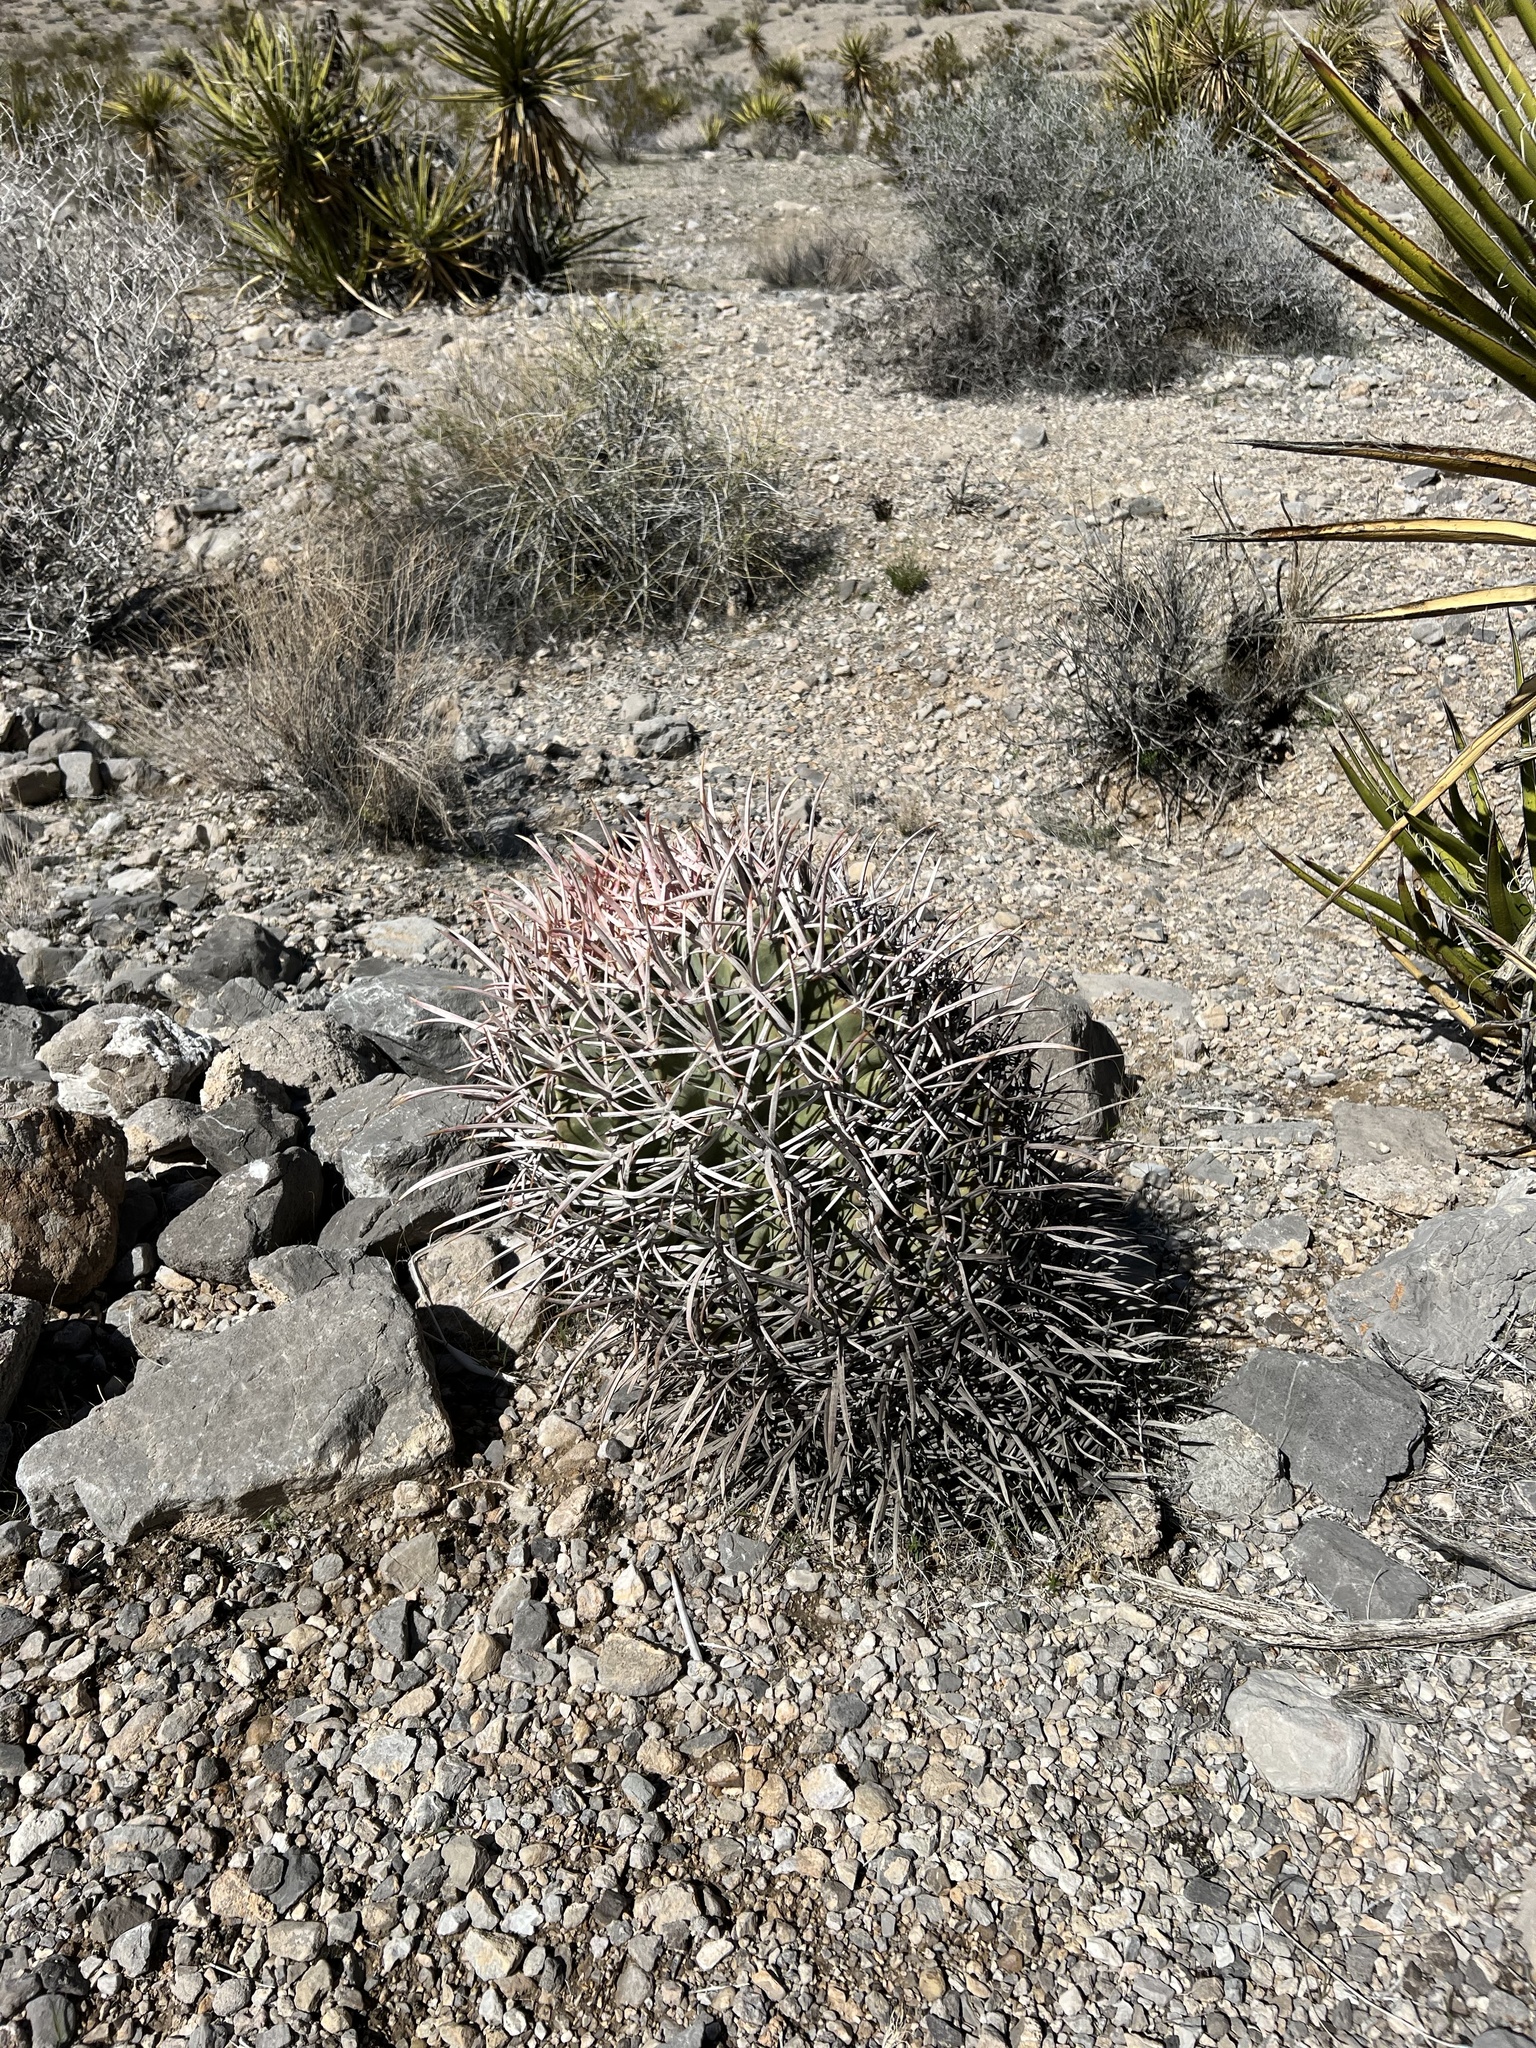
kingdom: Plantae
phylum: Tracheophyta
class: Magnoliopsida
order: Caryophyllales
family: Cactaceae
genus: Echinocactus
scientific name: Echinocactus polycephalus
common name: Cottontop cactus
